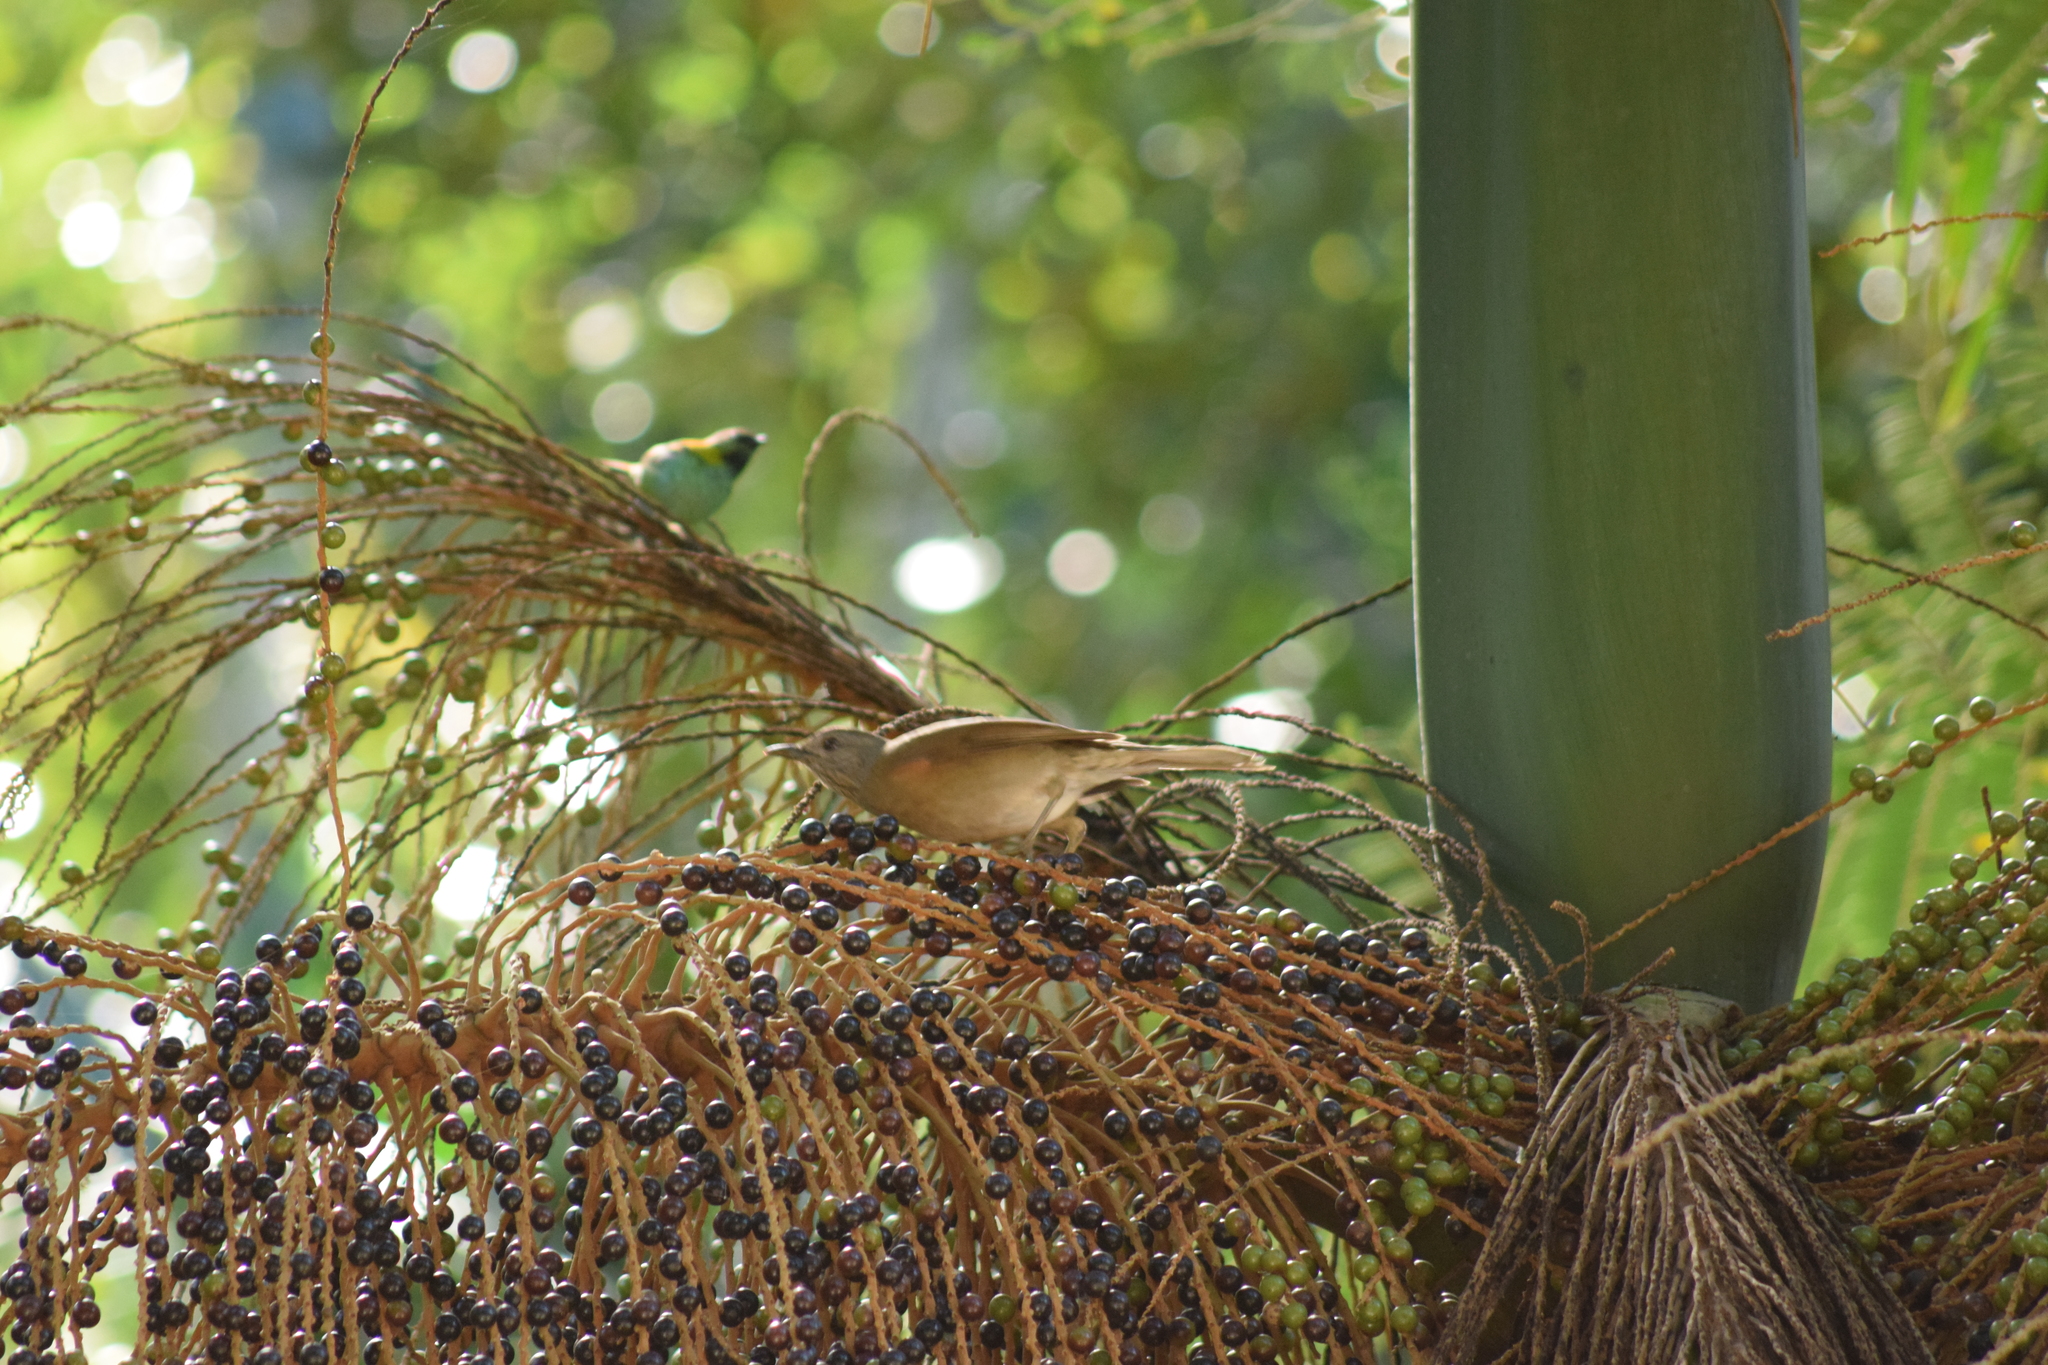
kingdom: Animalia
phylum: Chordata
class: Aves
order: Passeriformes
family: Turdidae
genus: Turdus
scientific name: Turdus leucomelas
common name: Pale-breasted thrush
